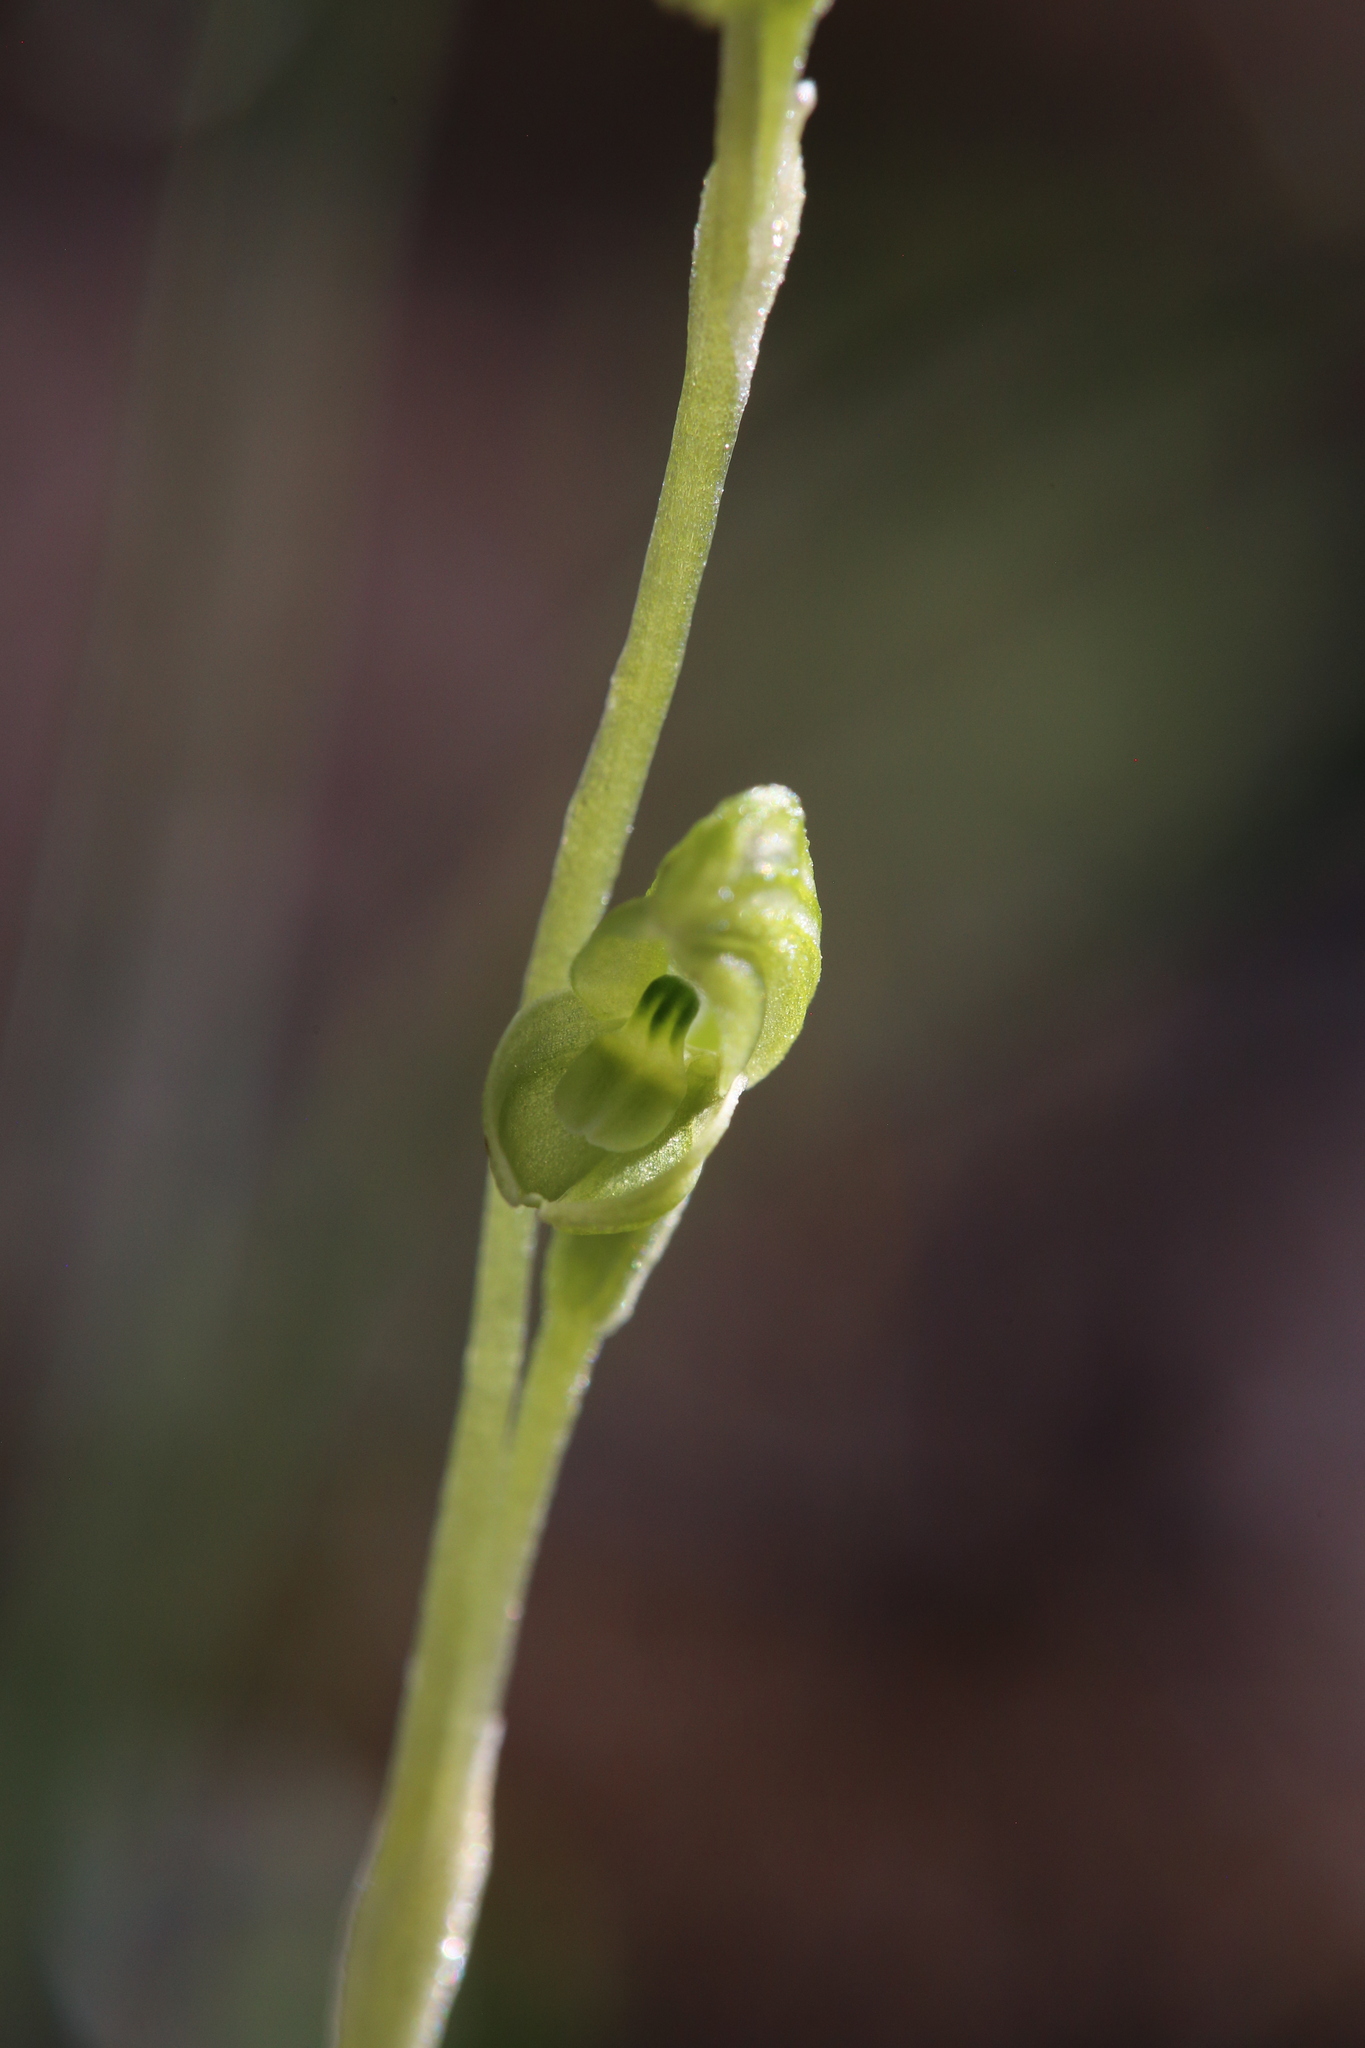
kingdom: Plantae
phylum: Tracheophyta
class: Liliopsida
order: Asparagales
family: Orchidaceae
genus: Pterostylis
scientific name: Pterostylis mutica
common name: Midget greenhood
